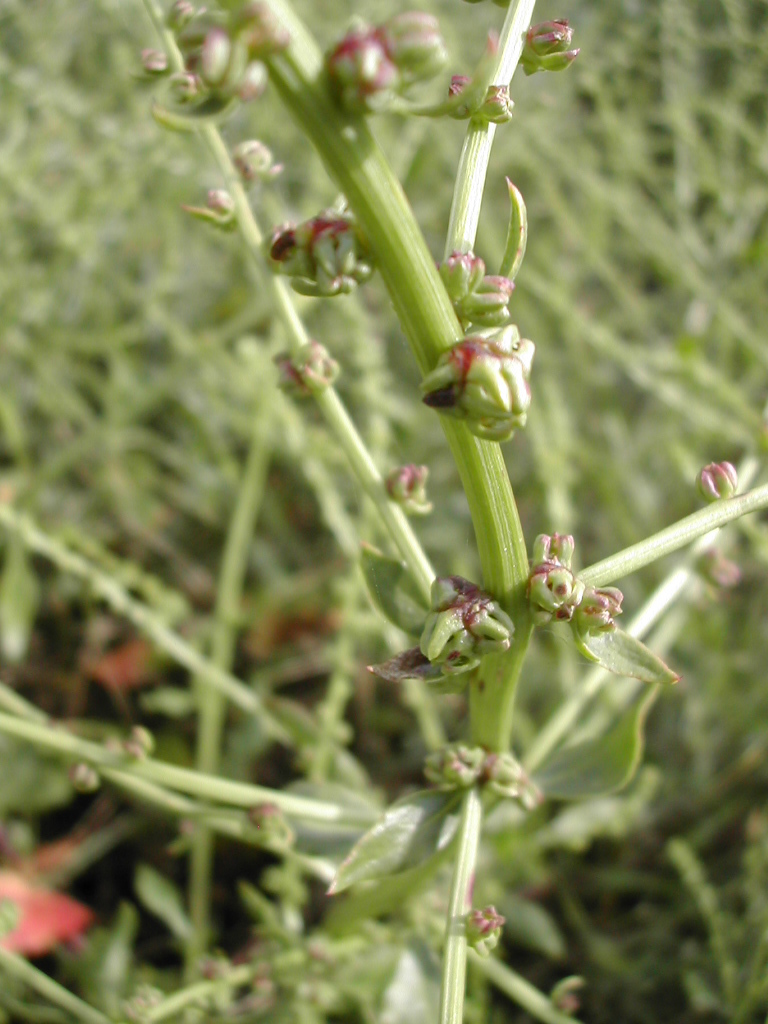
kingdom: Plantae
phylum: Tracheophyta
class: Magnoliopsida
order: Caryophyllales
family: Amaranthaceae
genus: Beta
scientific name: Beta vulgaris
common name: Beet
